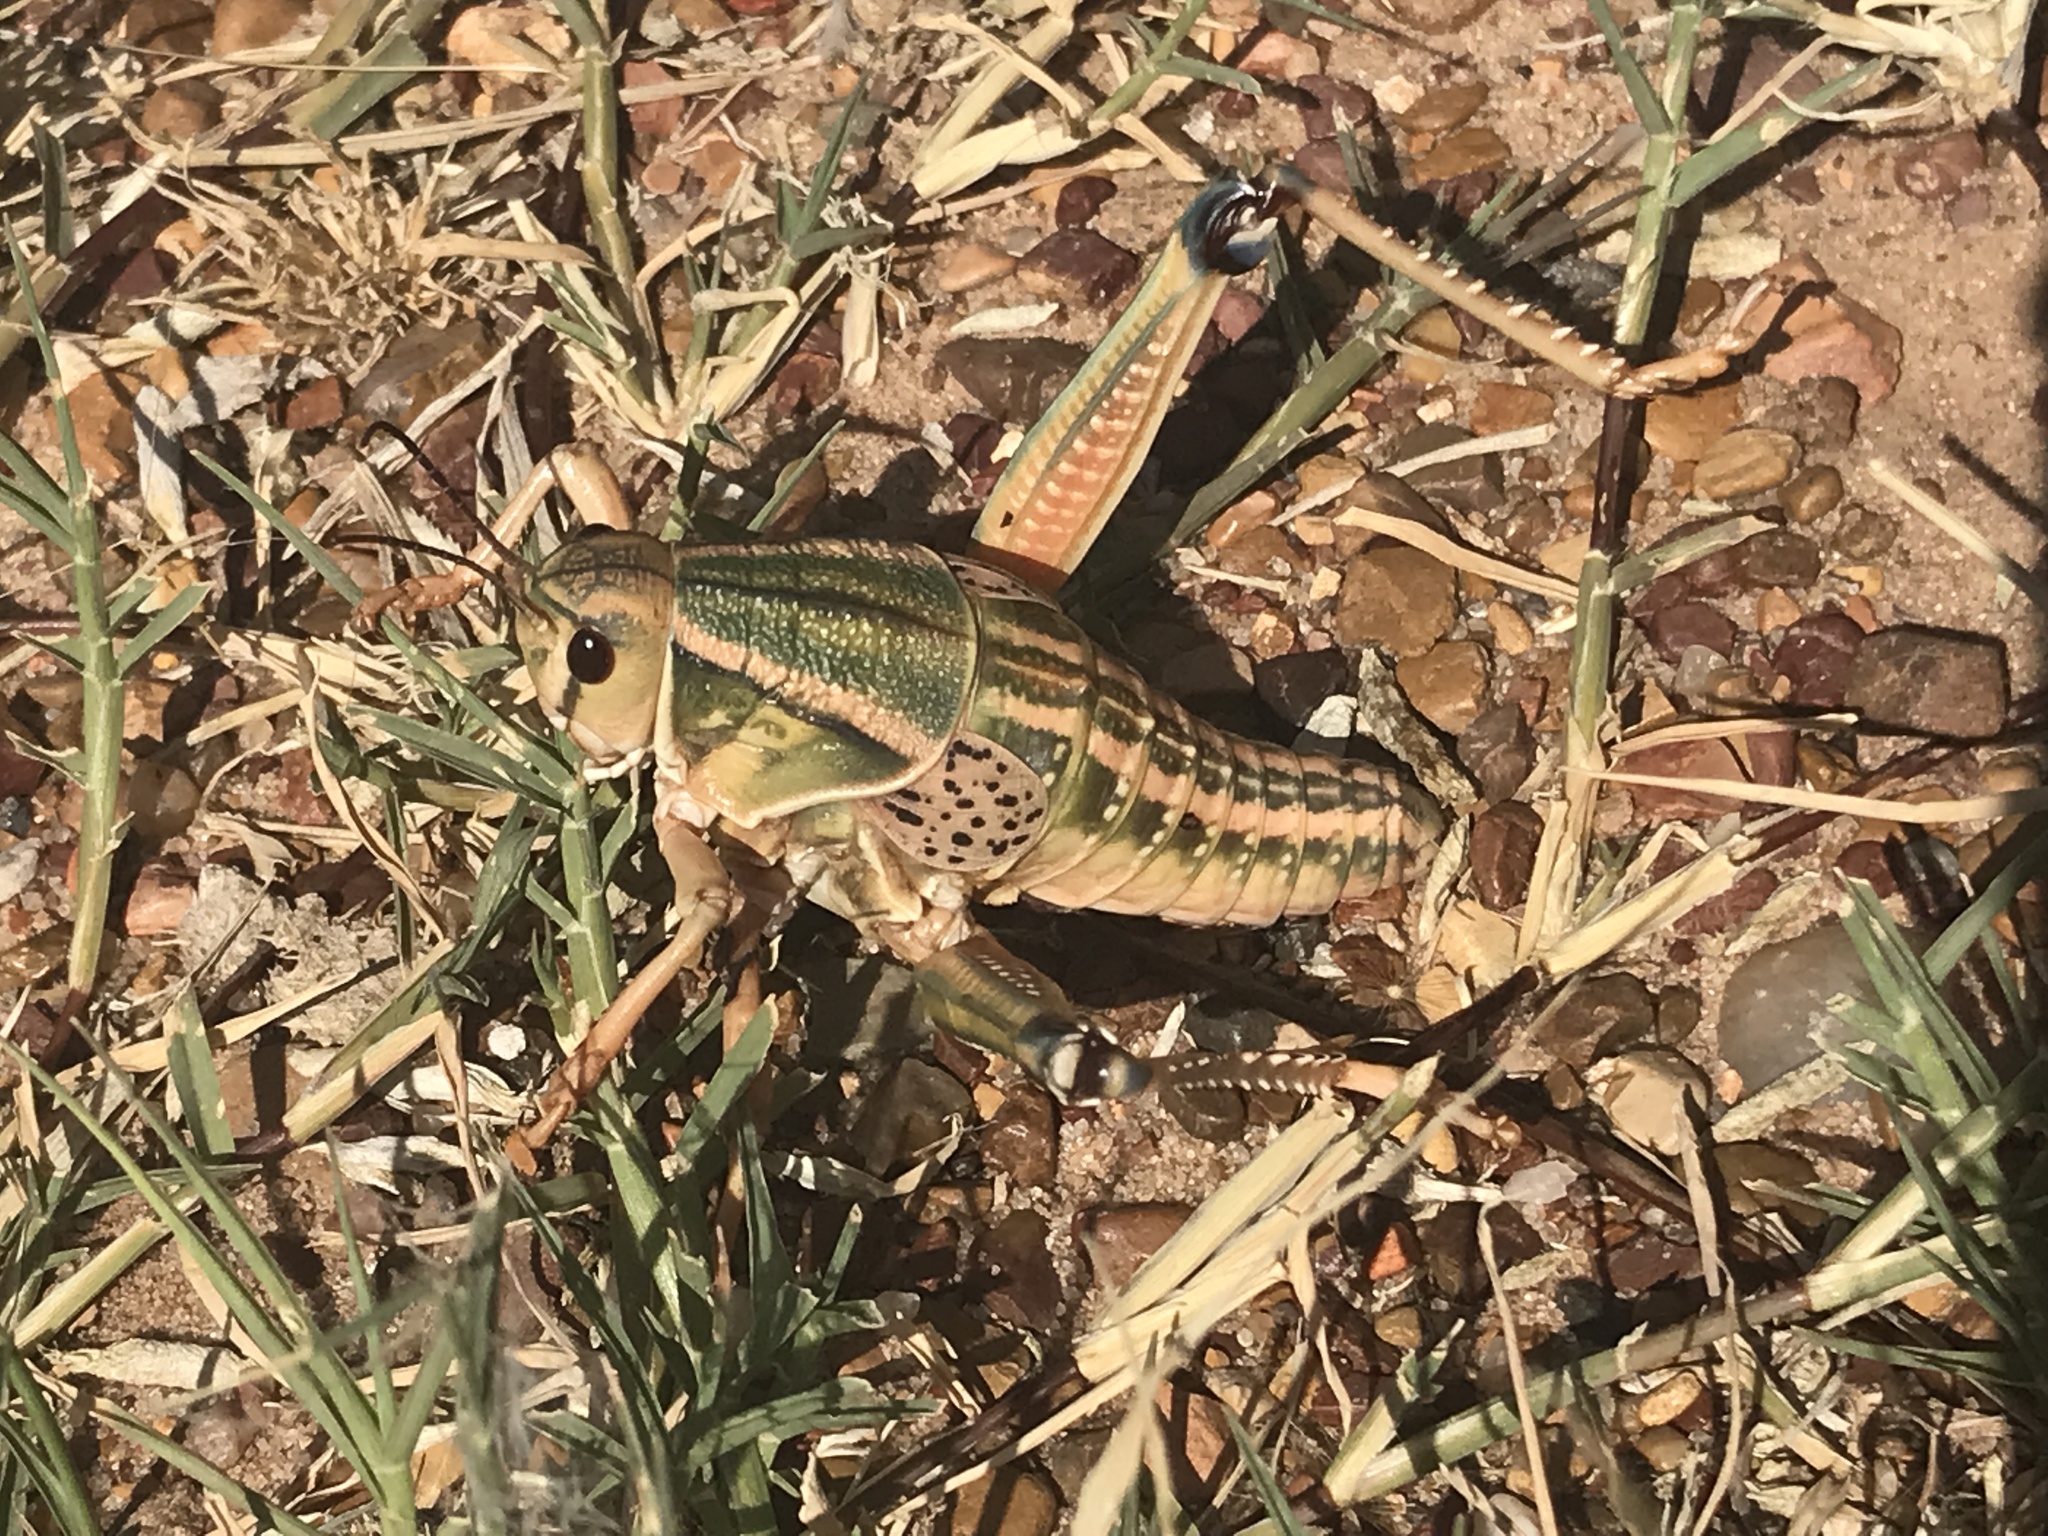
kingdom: Animalia
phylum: Arthropoda
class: Insecta
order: Orthoptera
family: Romaleidae
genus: Brachystola
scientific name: Brachystola magna
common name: Plains lubber grasshopper
